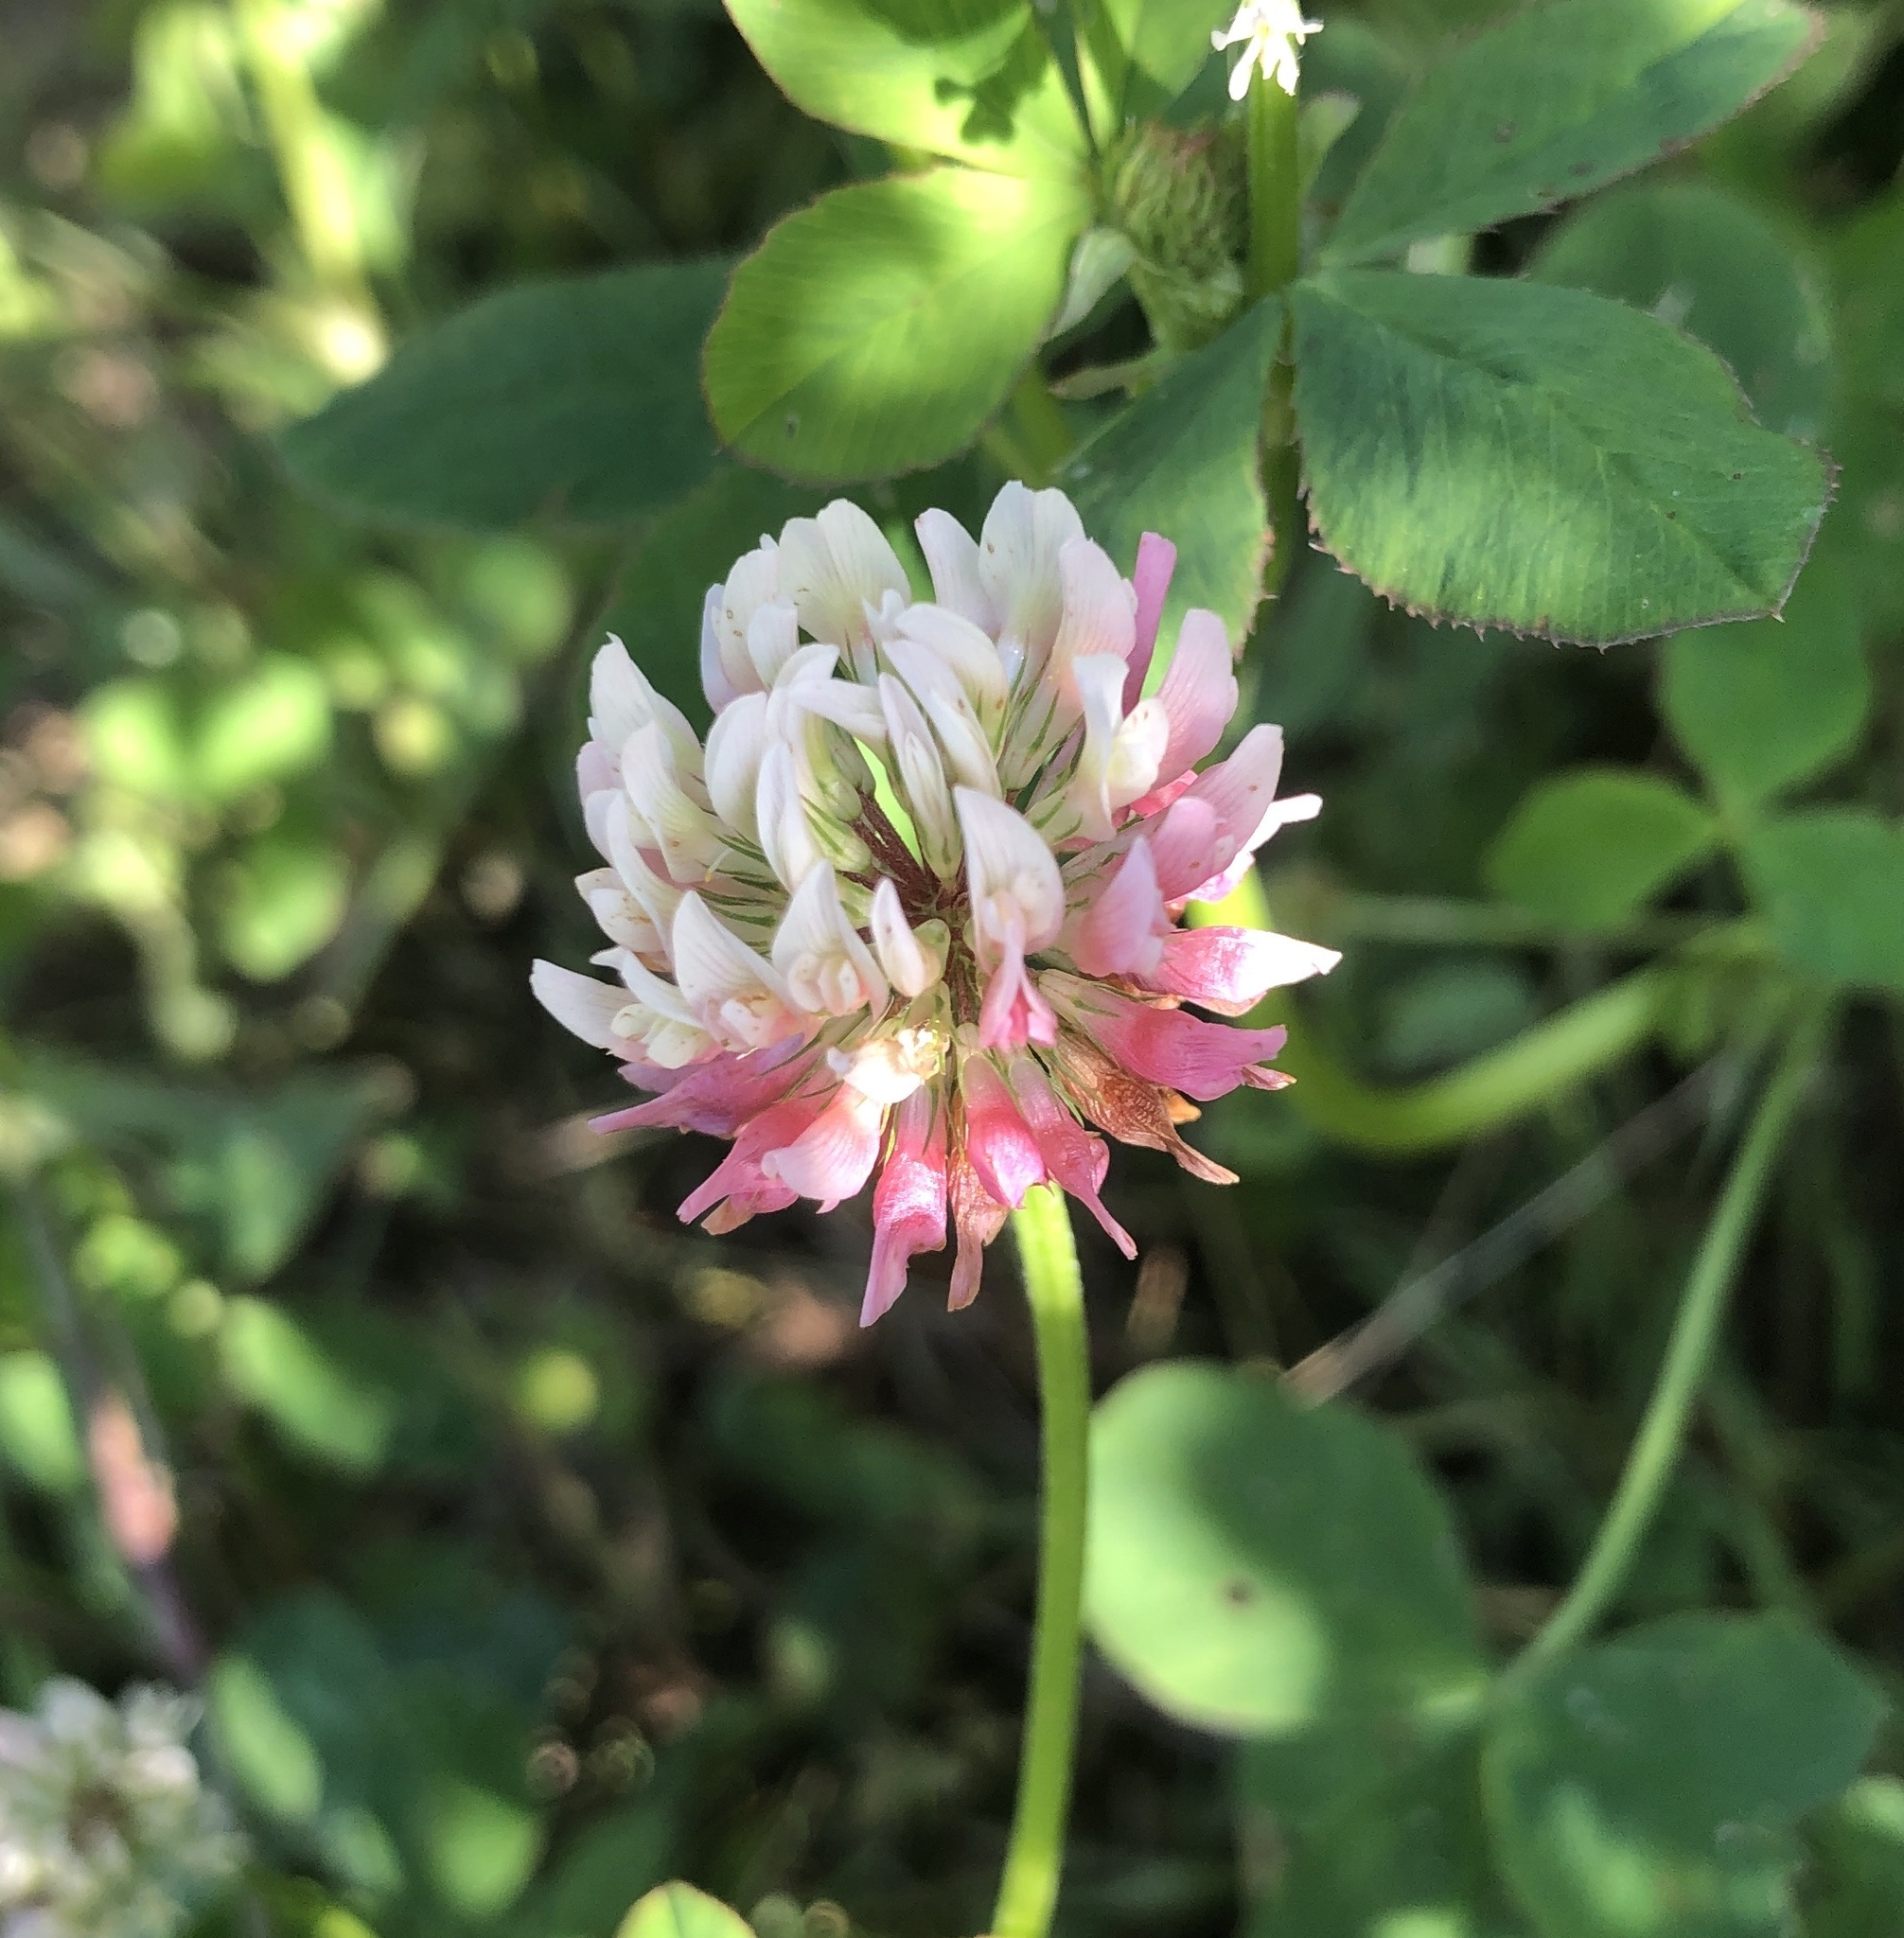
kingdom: Plantae
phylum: Tracheophyta
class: Magnoliopsida
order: Fabales
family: Fabaceae
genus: Trifolium
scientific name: Trifolium hybridum
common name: Alsike clover
